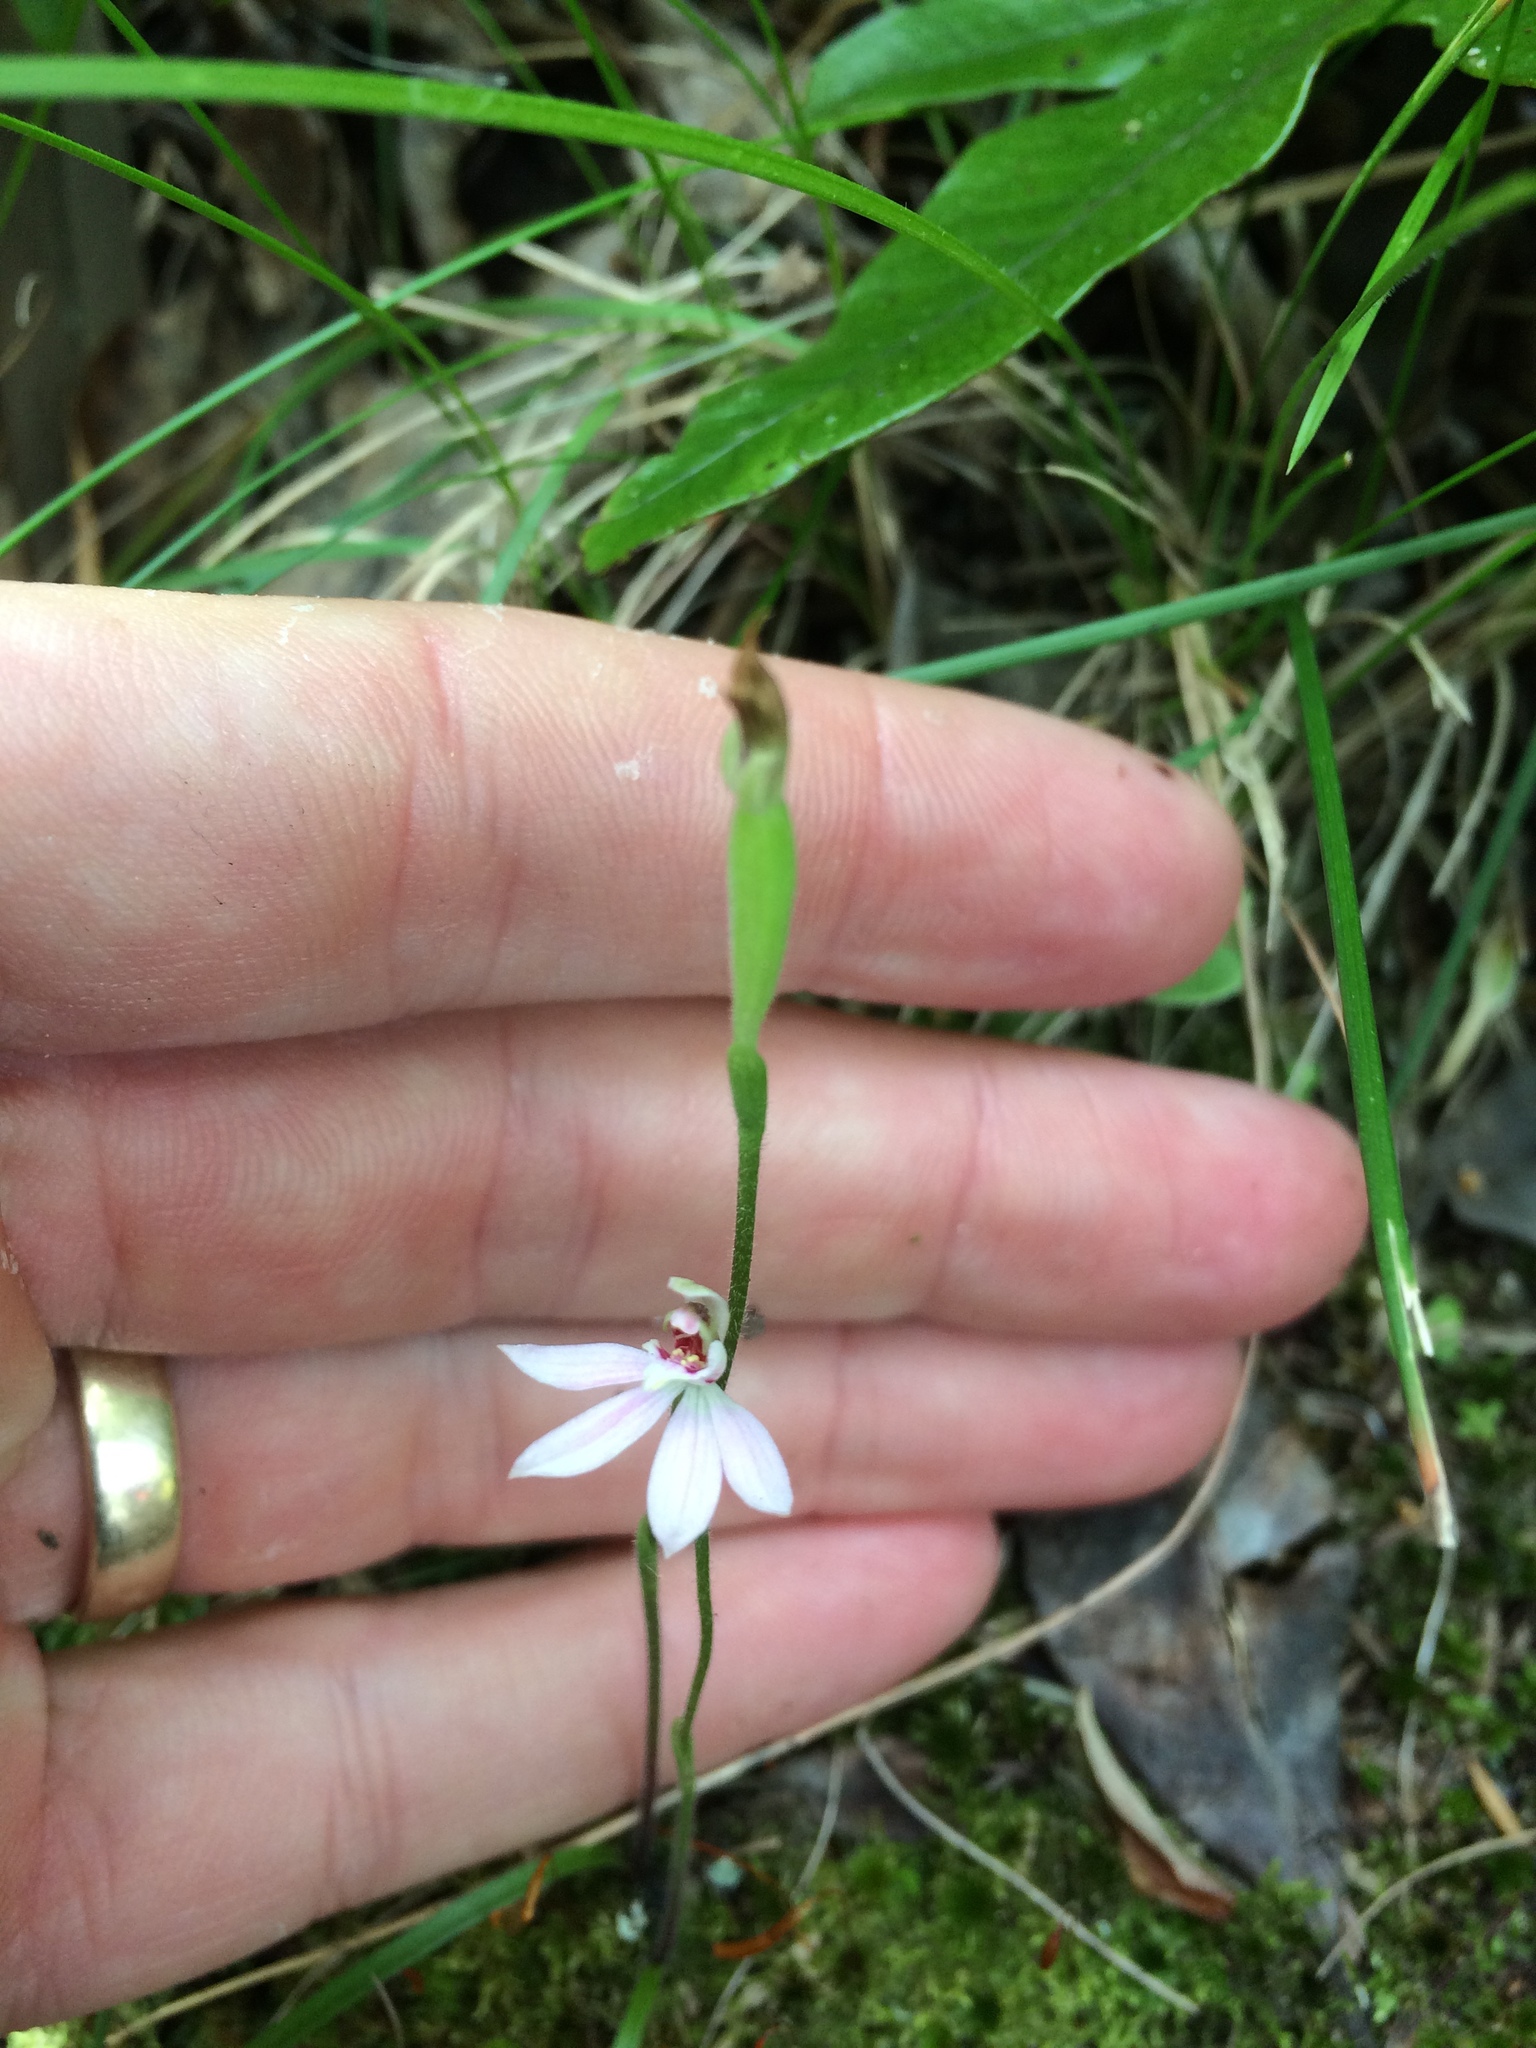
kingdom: Plantae
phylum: Tracheophyta
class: Liliopsida
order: Asparagales
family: Orchidaceae
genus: Caladenia
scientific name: Caladenia variegata
